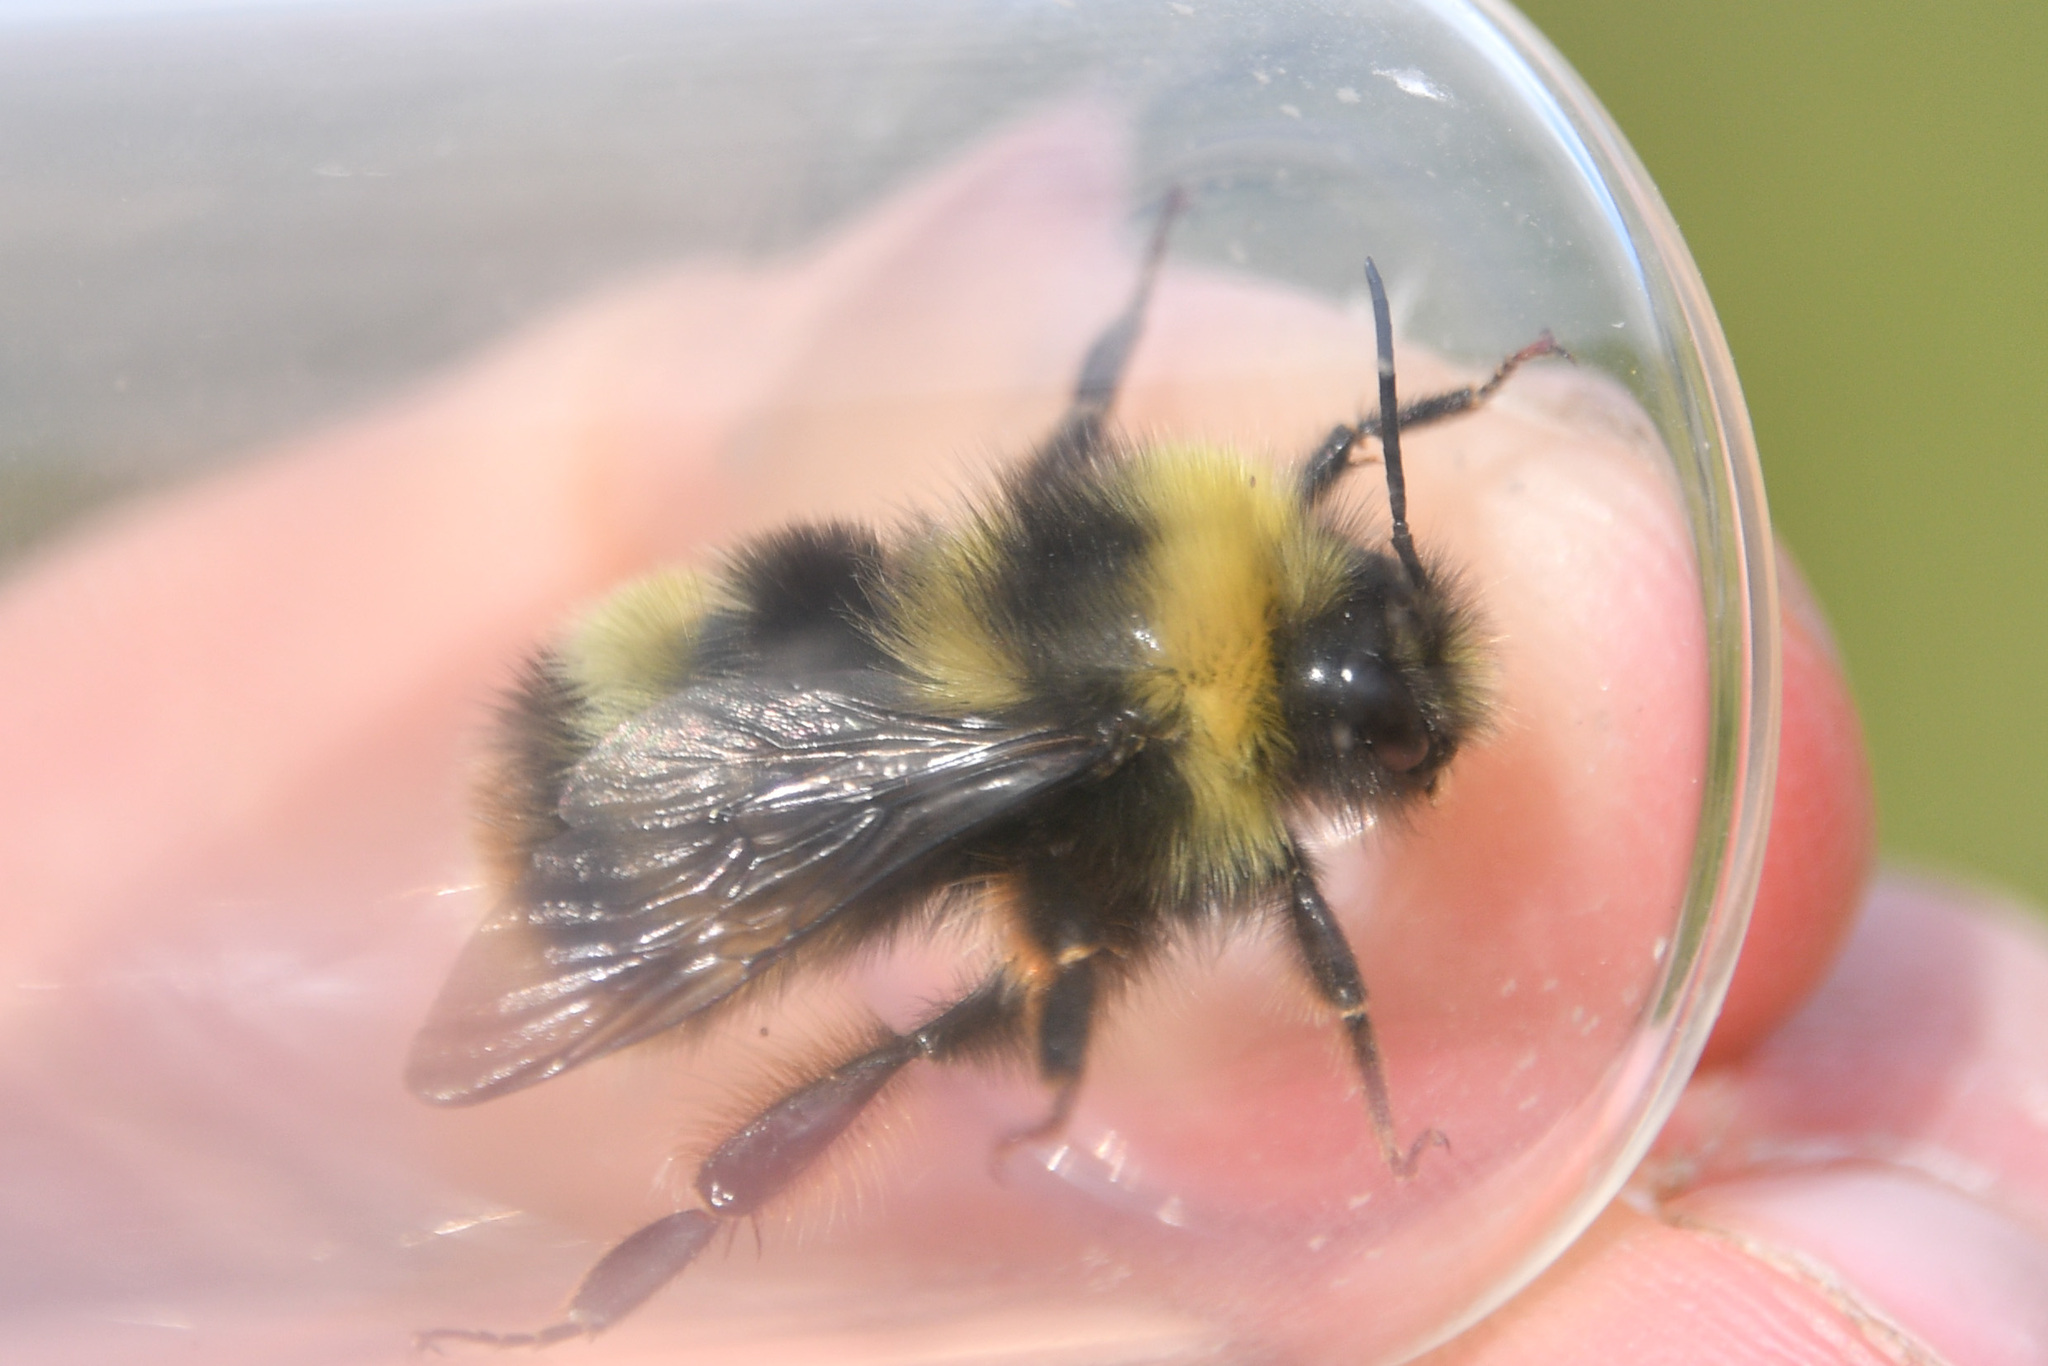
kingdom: Animalia
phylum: Arthropoda
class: Insecta
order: Hymenoptera
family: Apidae
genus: Bombus
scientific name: Bombus mckayi
